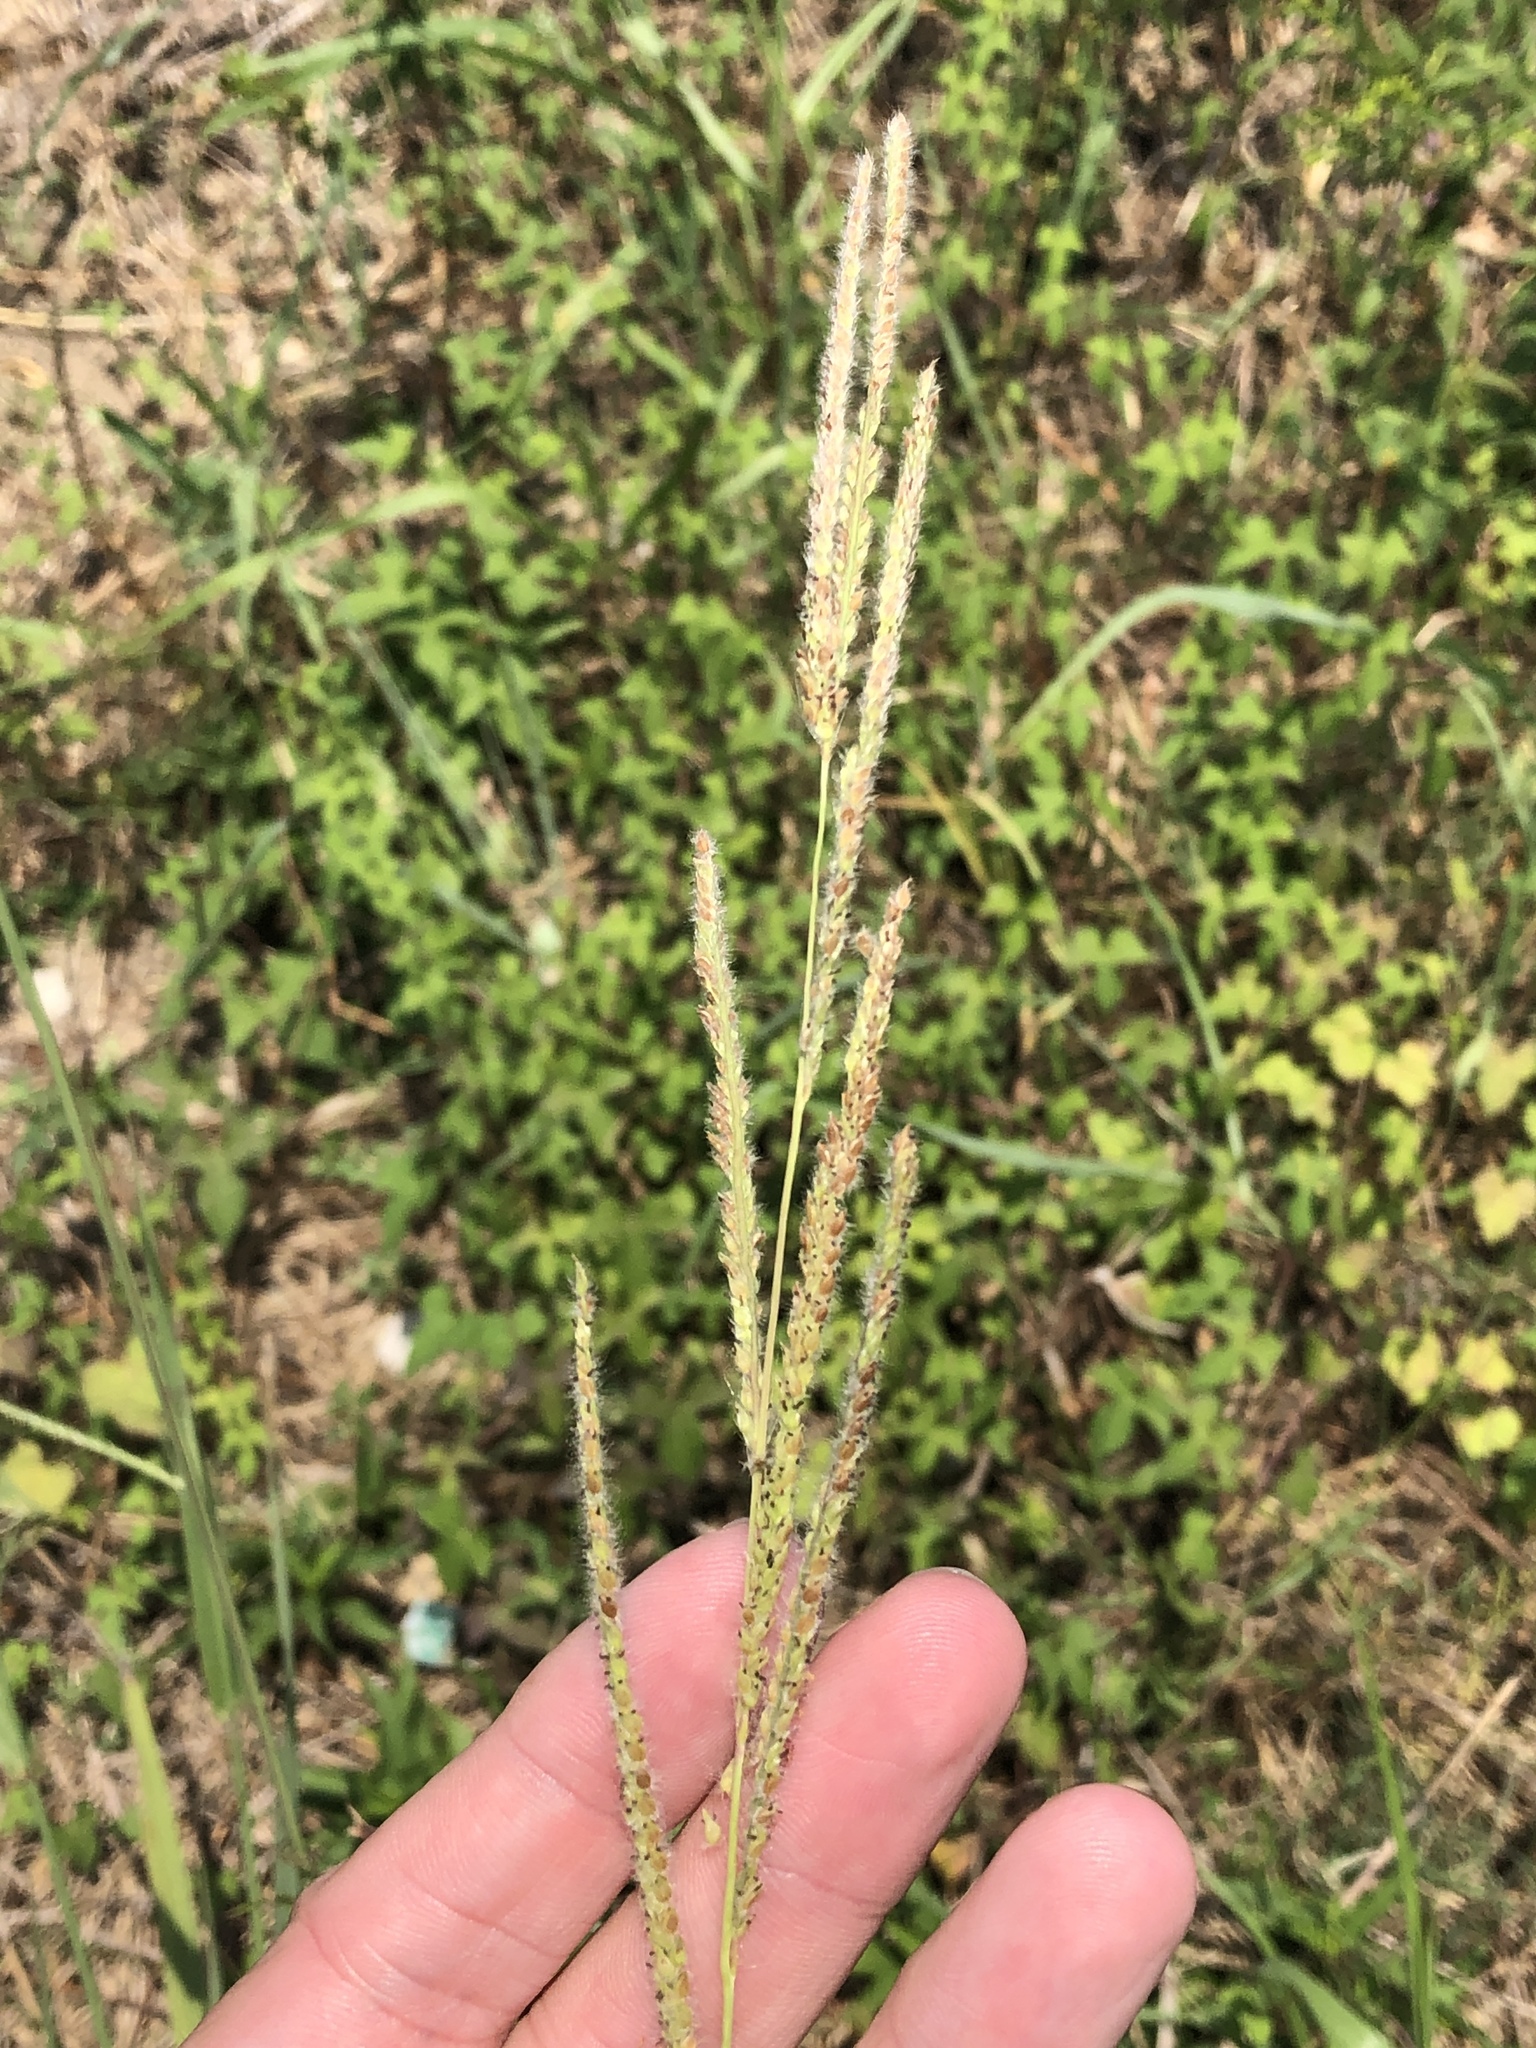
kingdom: Plantae
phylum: Tracheophyta
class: Liliopsida
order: Poales
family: Poaceae
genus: Paspalum
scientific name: Paspalum urvillei
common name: Vasey's grass
